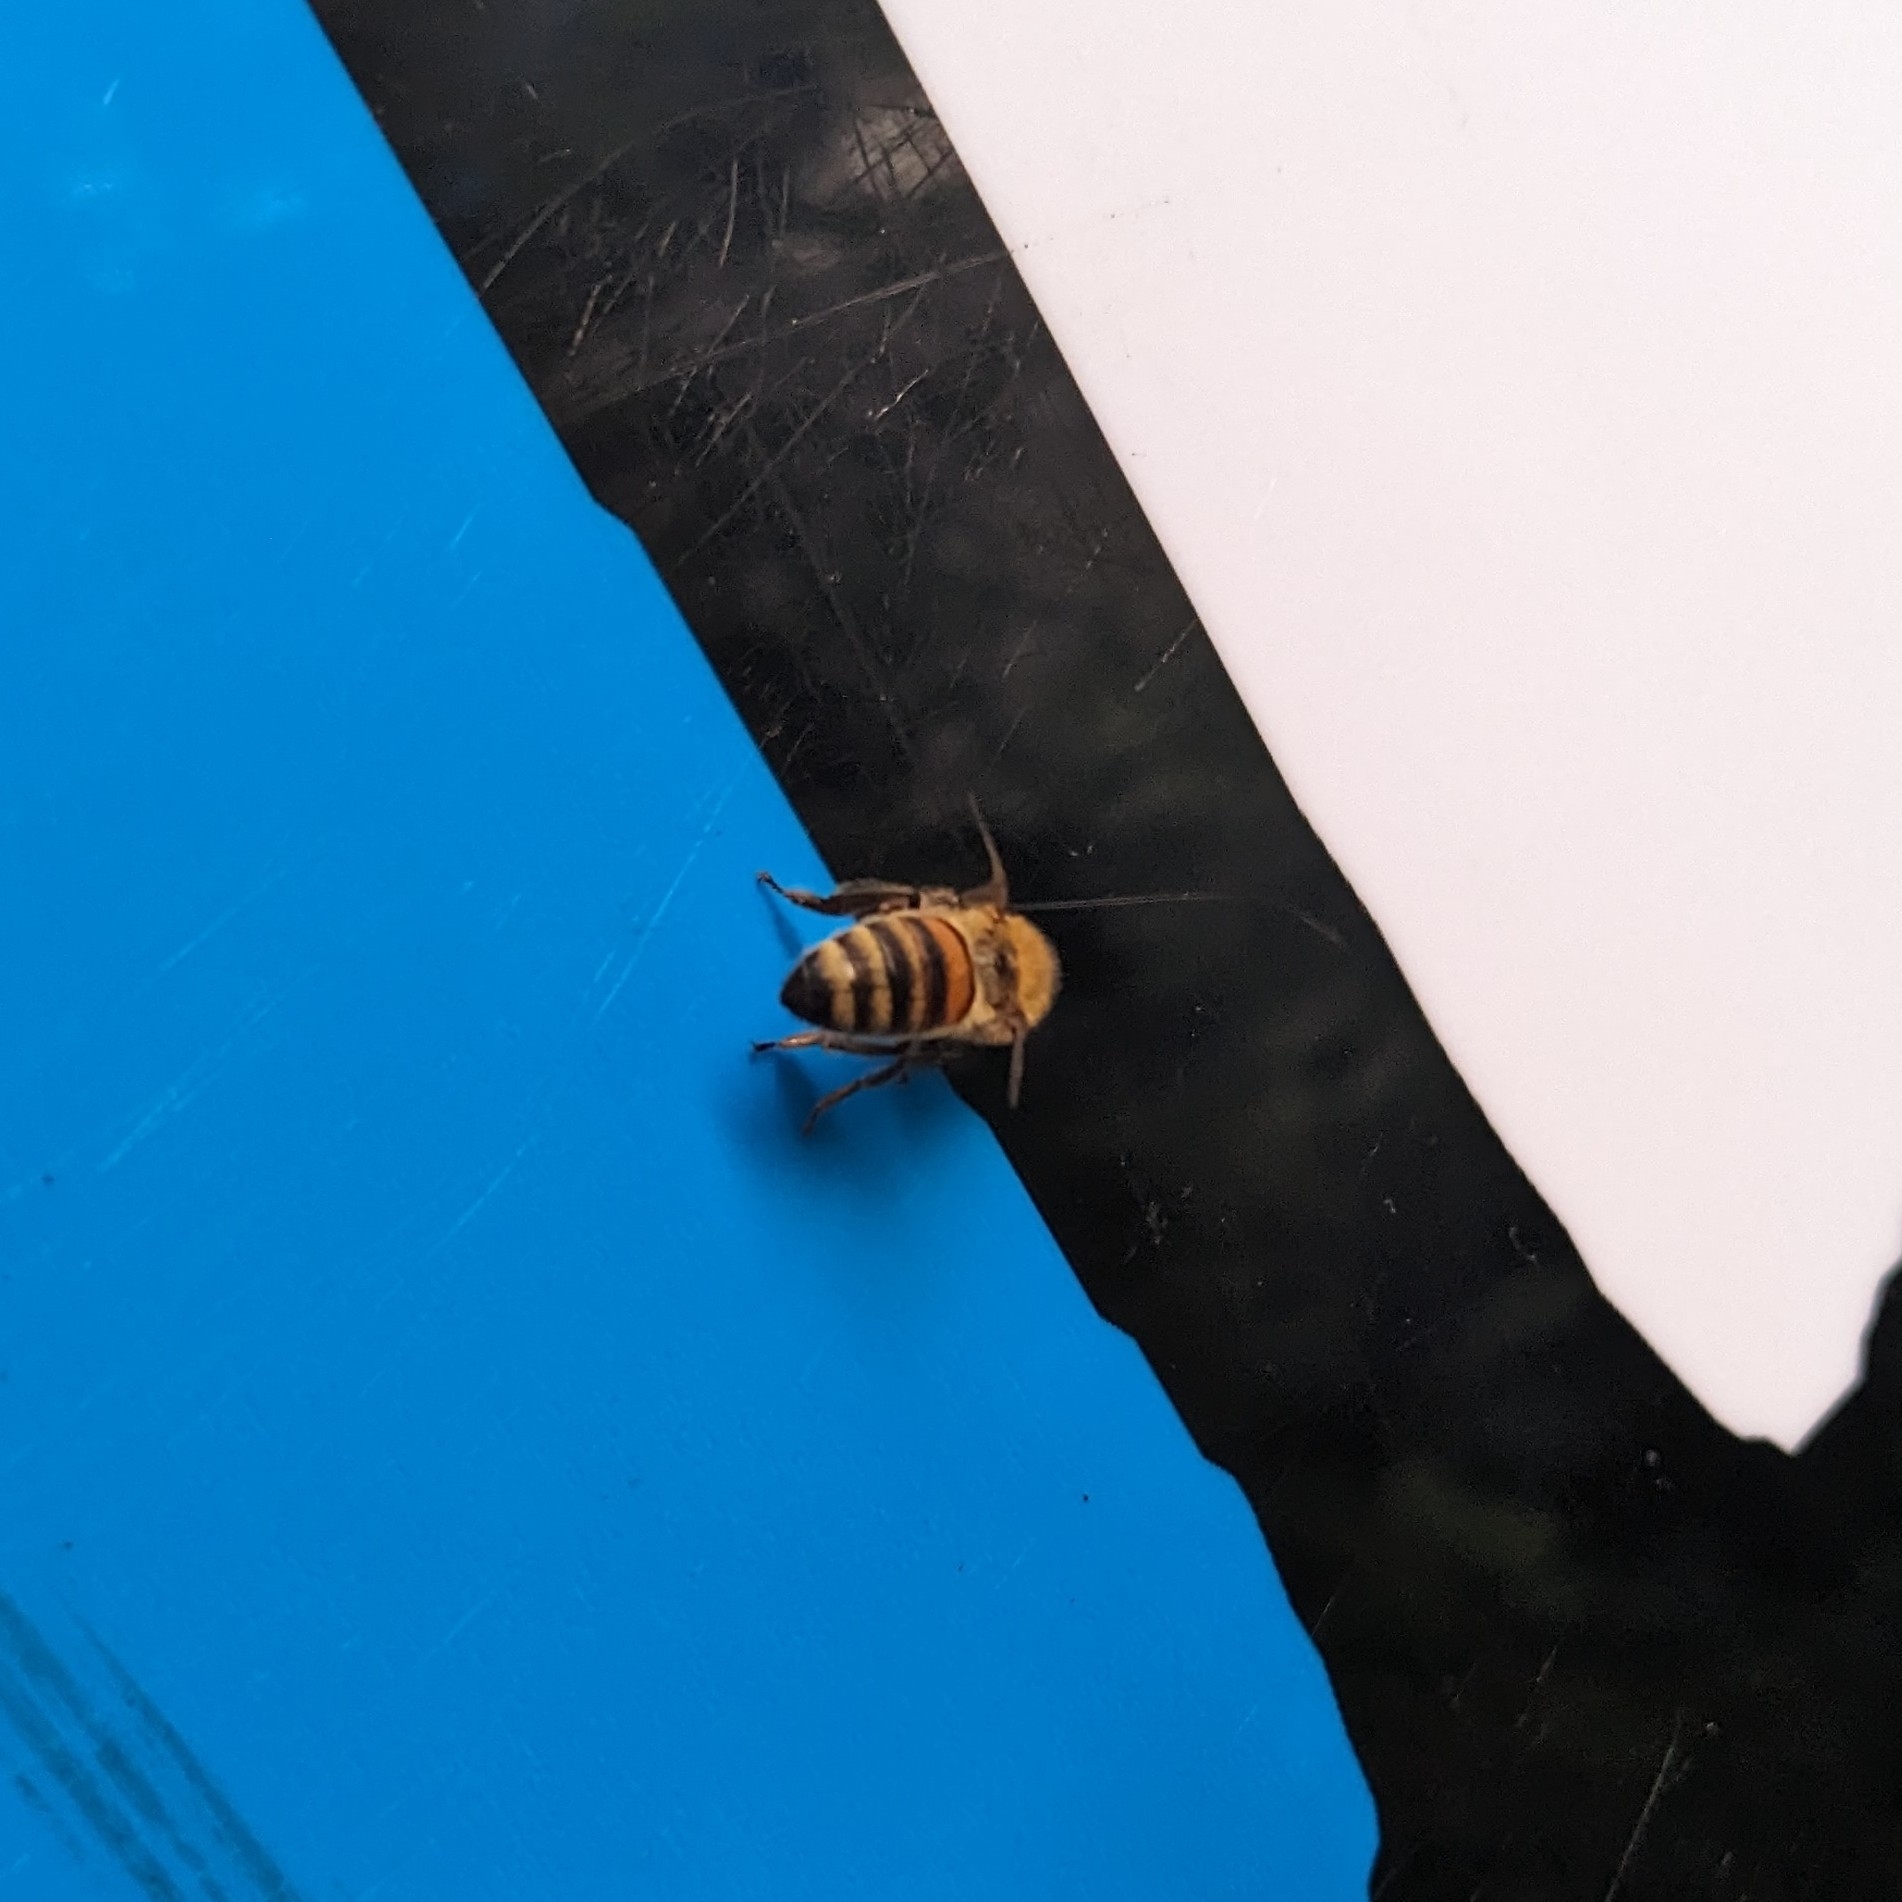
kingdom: Animalia
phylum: Arthropoda
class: Insecta
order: Hymenoptera
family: Apidae
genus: Apis
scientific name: Apis mellifera
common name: Honey bee
